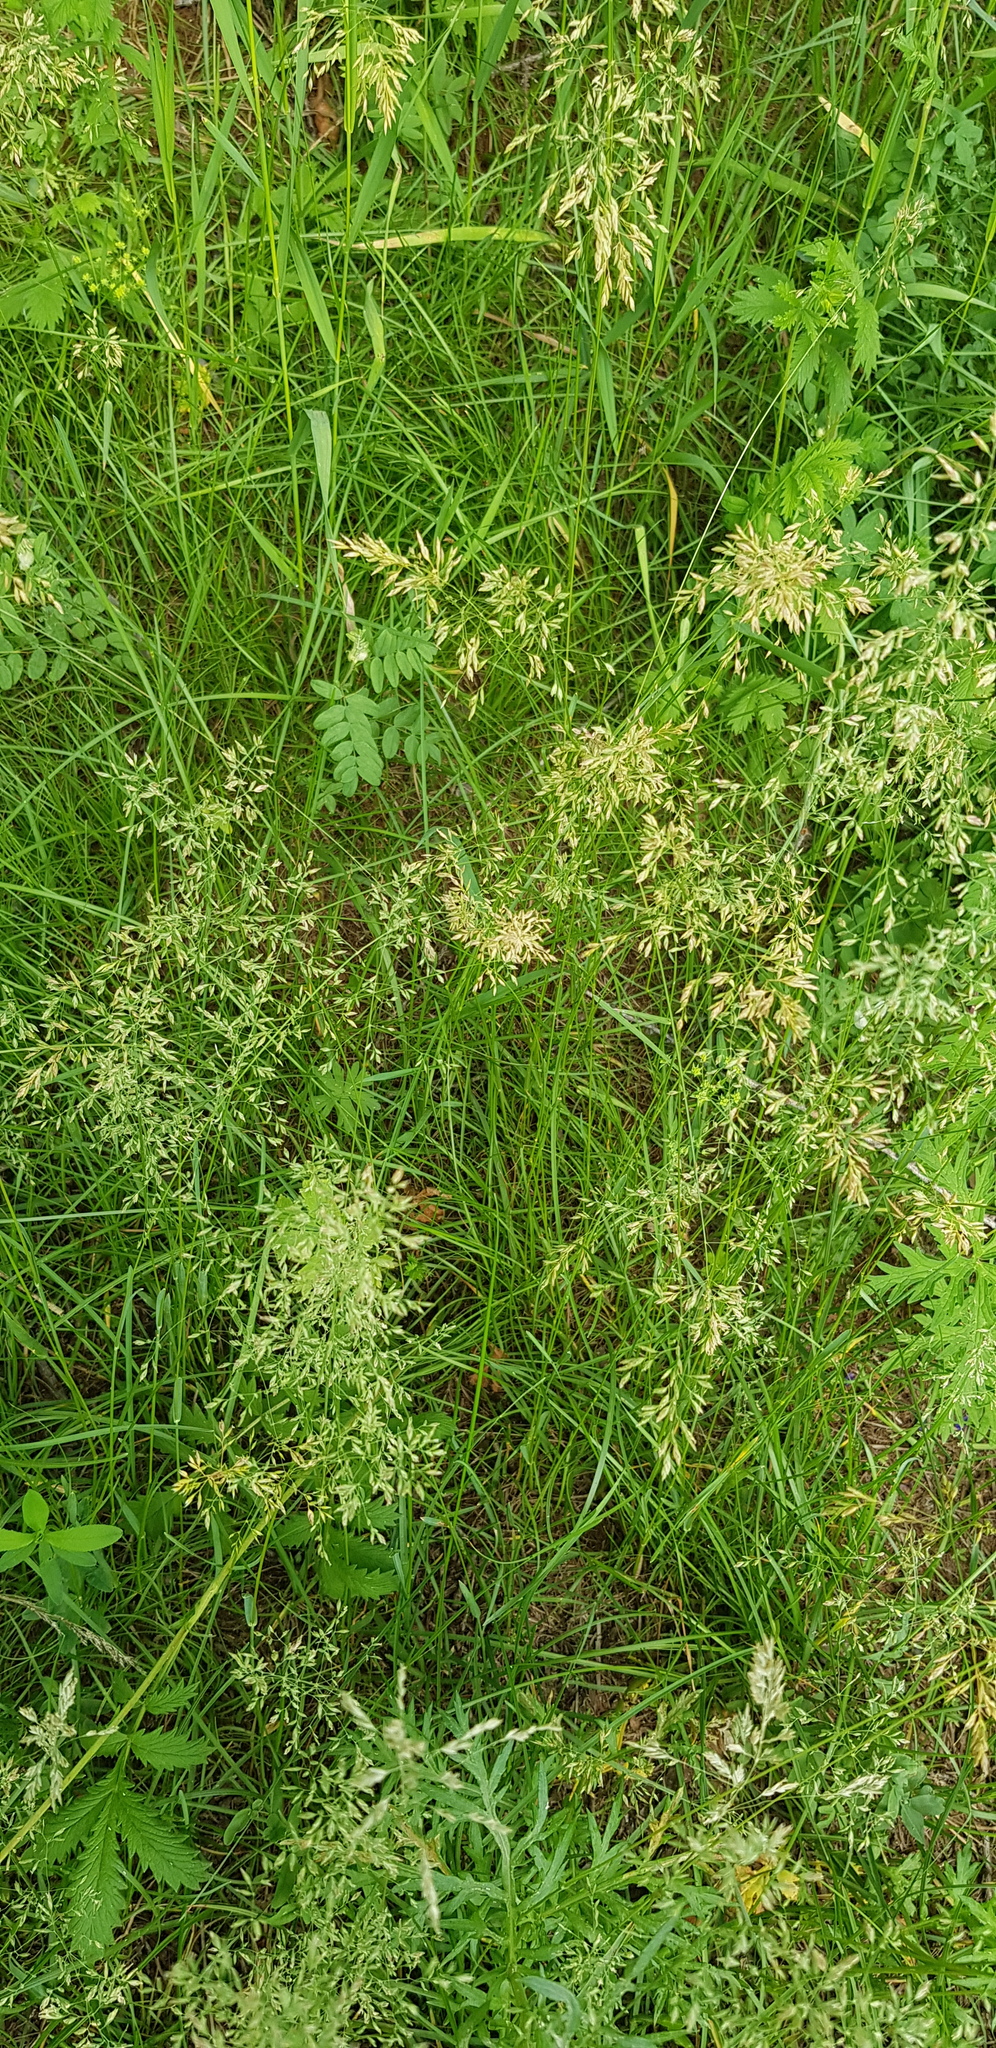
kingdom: Plantae
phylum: Tracheophyta
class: Liliopsida
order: Poales
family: Poaceae
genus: Poa
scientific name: Poa pratensis
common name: Kentucky bluegrass
